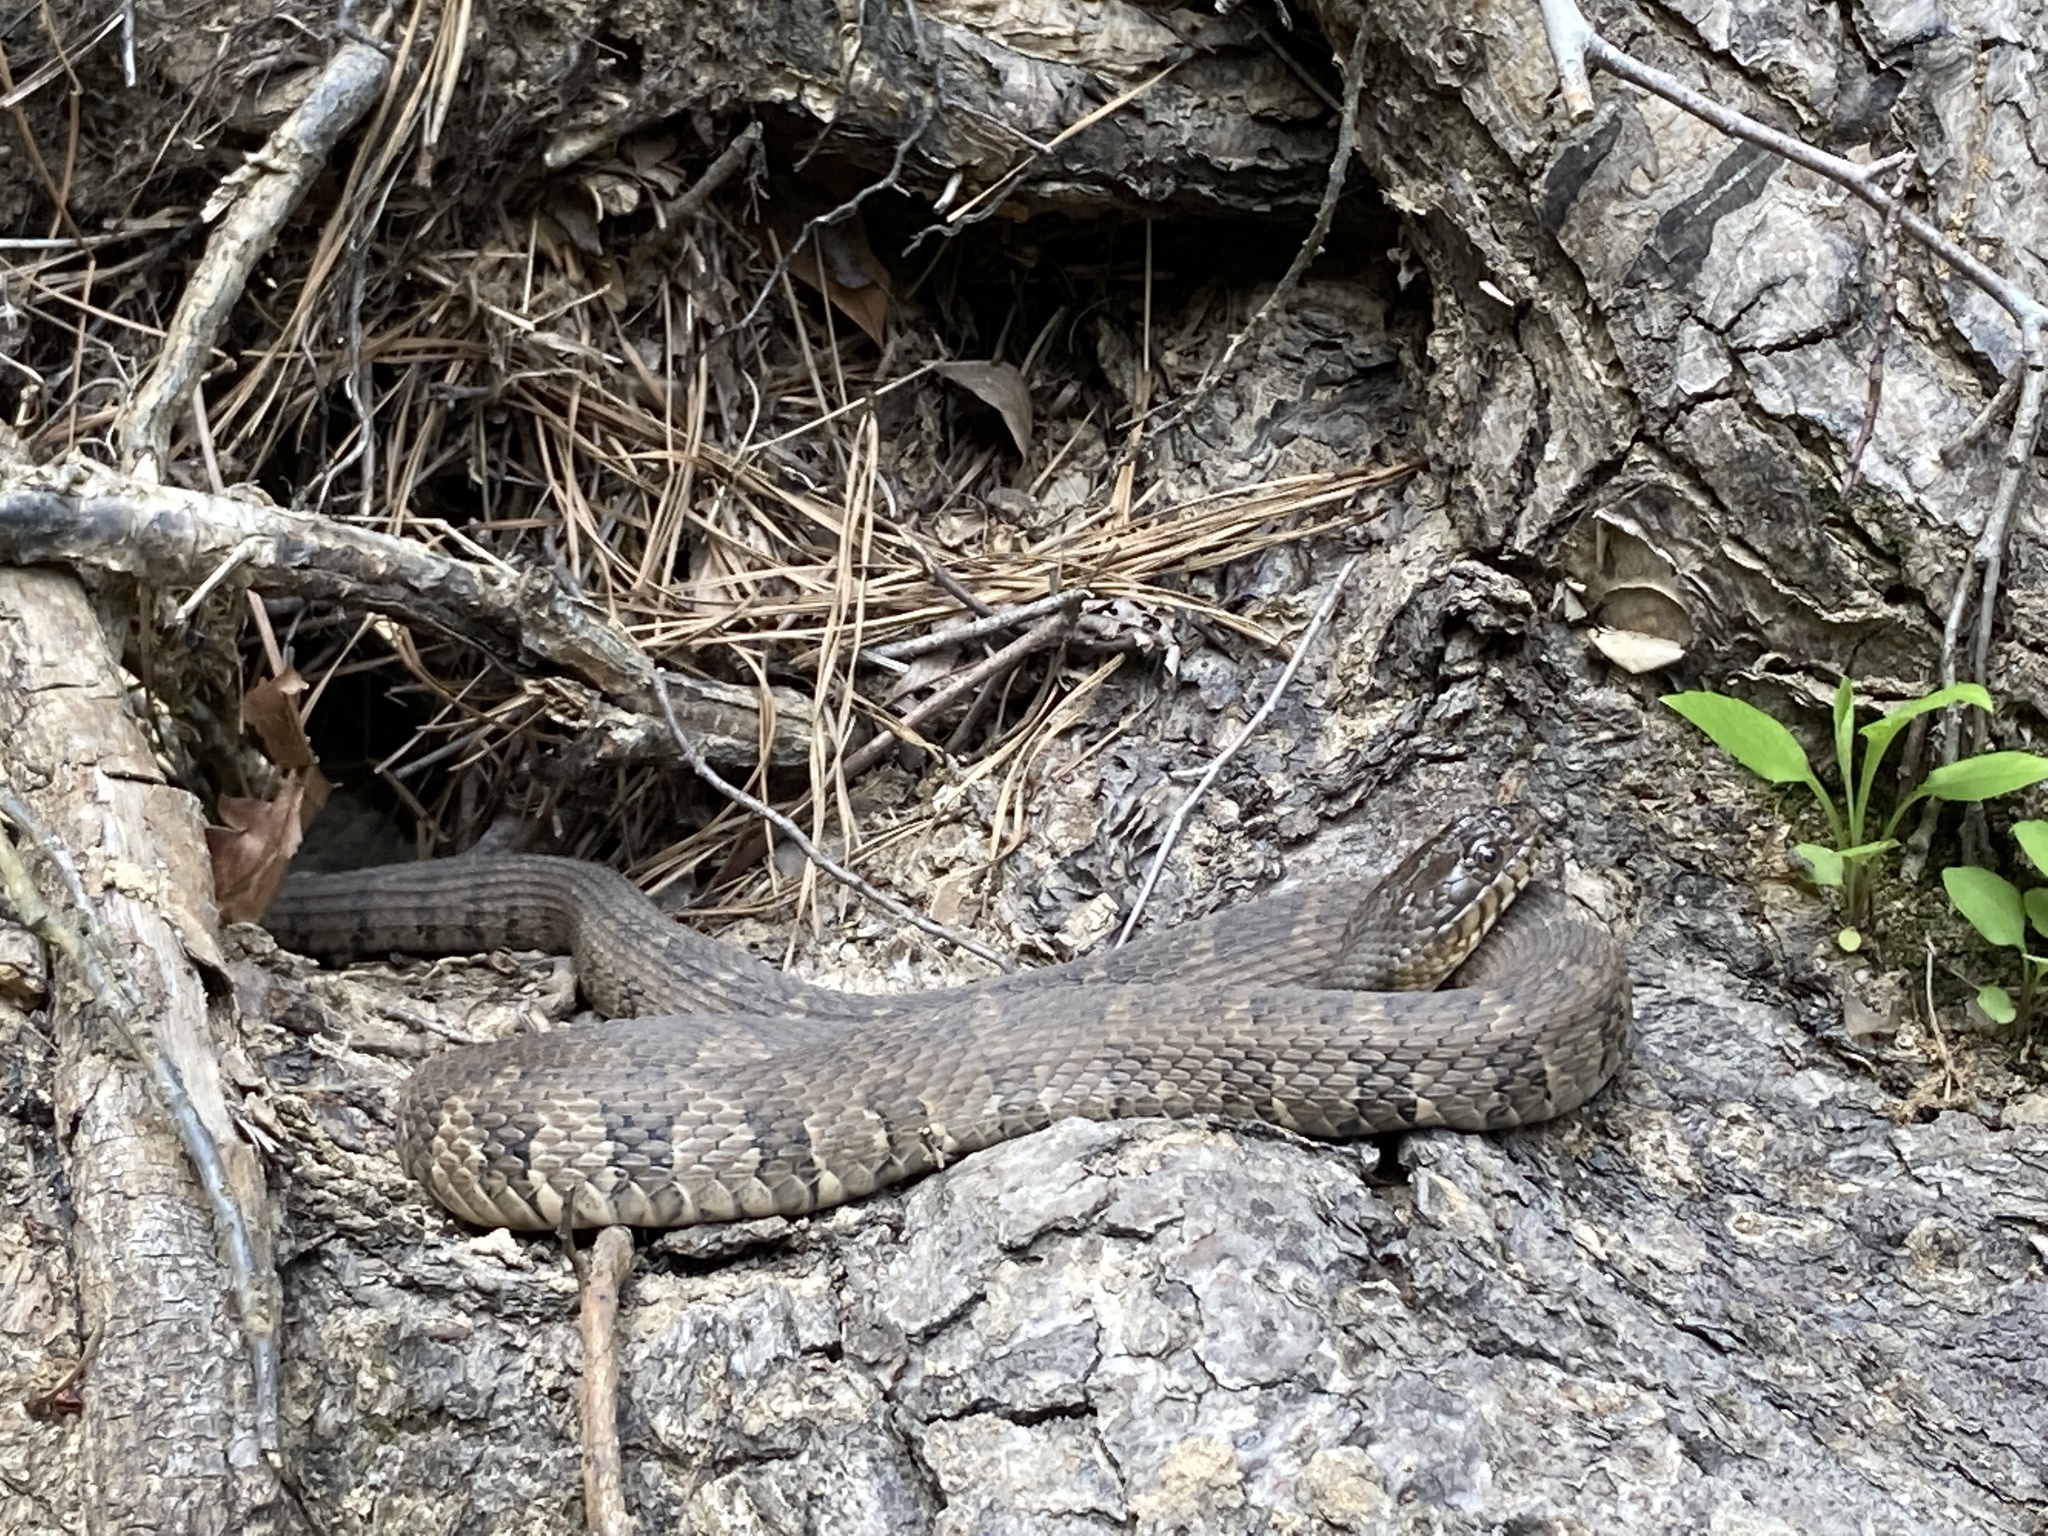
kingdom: Animalia
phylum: Chordata
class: Squamata
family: Colubridae
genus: Nerodia
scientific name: Nerodia sipedon
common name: Northern water snake
